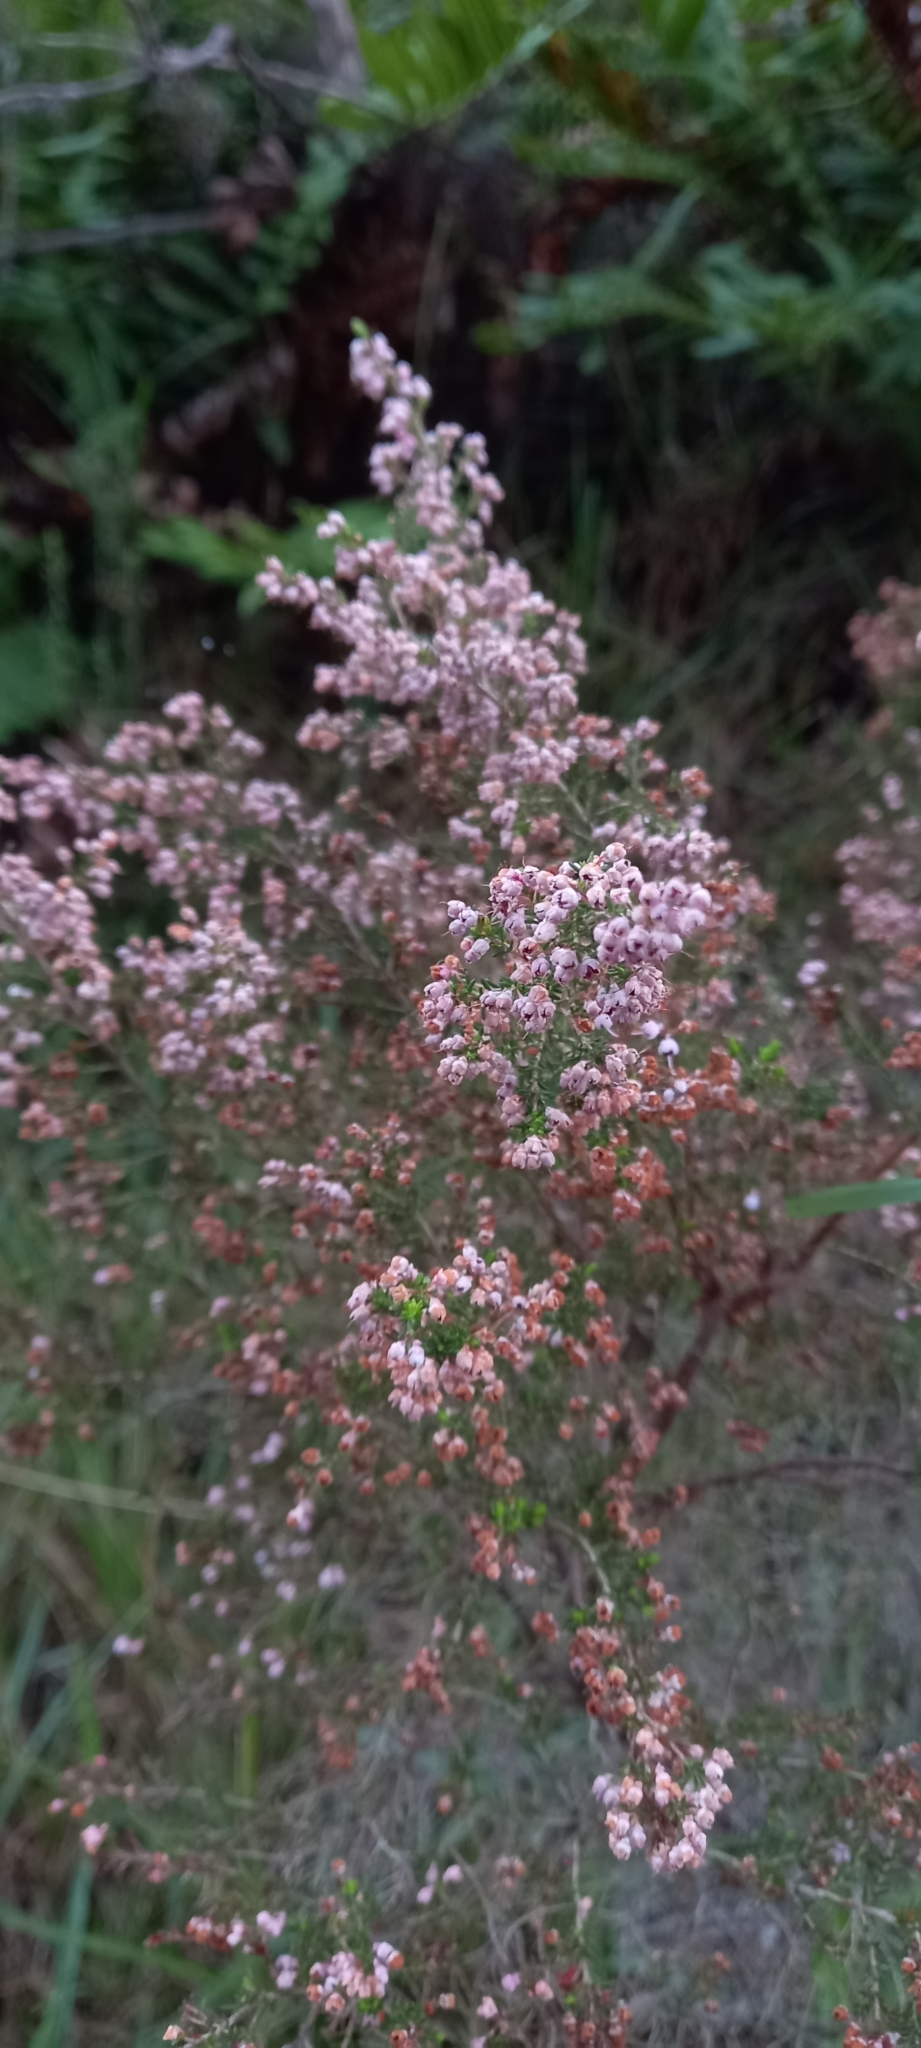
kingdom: Plantae
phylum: Tracheophyta
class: Magnoliopsida
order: Ericales
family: Ericaceae
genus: Erica
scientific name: Erica canaliculata
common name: Hairy grey heather
